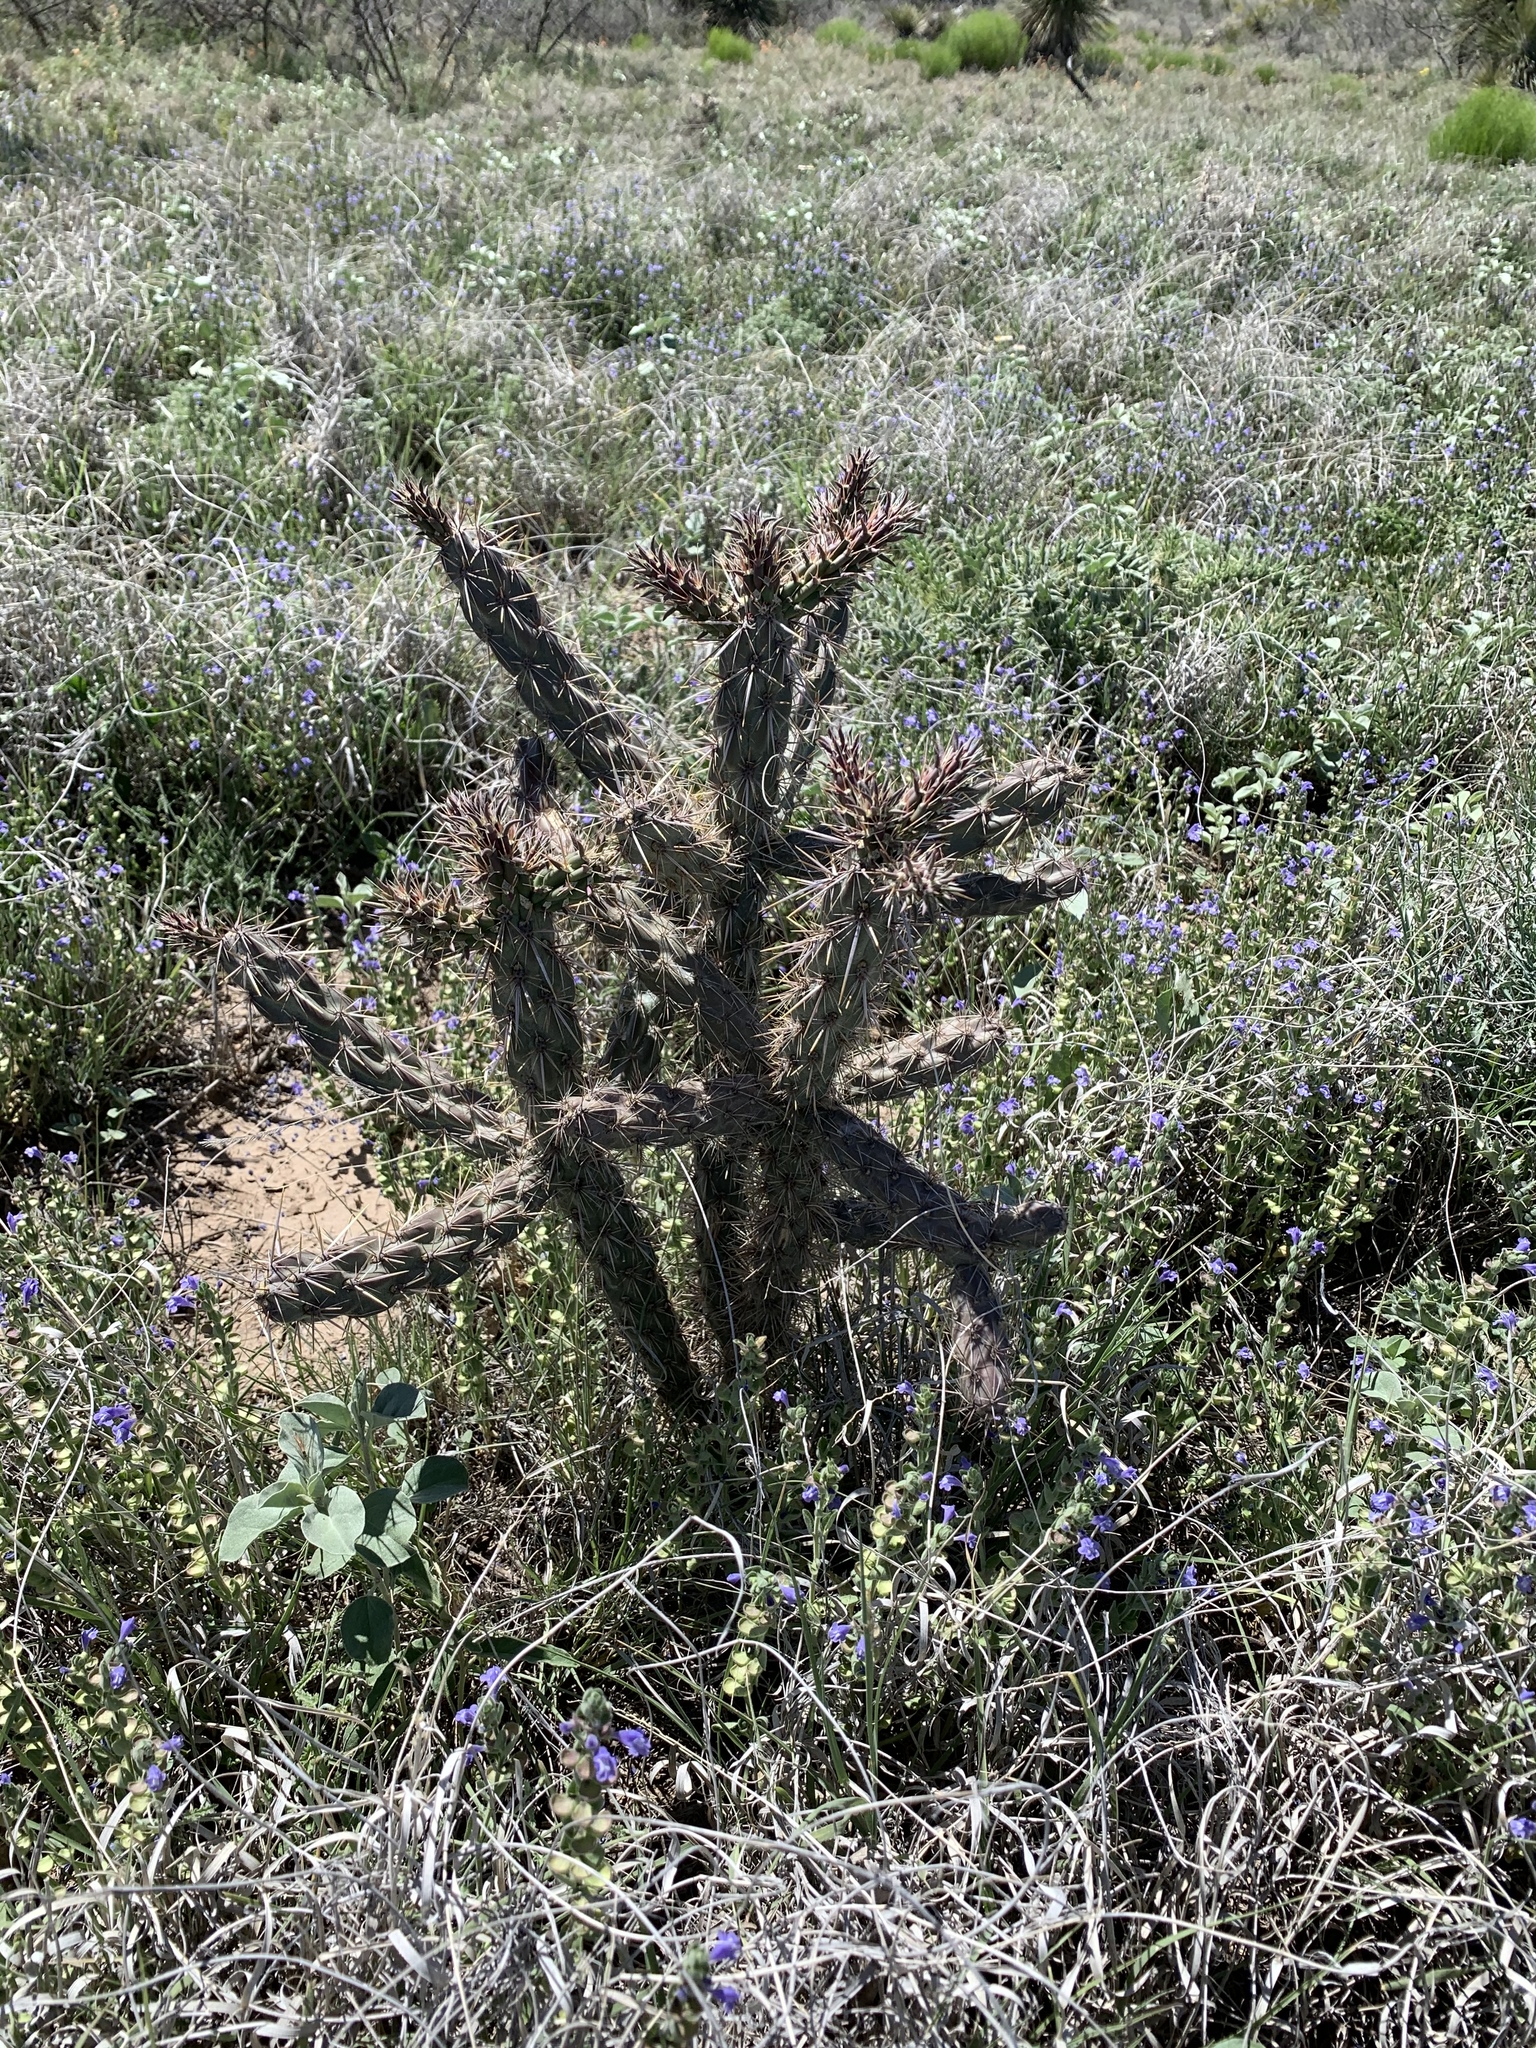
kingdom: Plantae
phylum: Tracheophyta
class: Magnoliopsida
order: Caryophyllales
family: Cactaceae
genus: Cylindropuntia
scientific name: Cylindropuntia imbricata
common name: Candelabrum cactus
